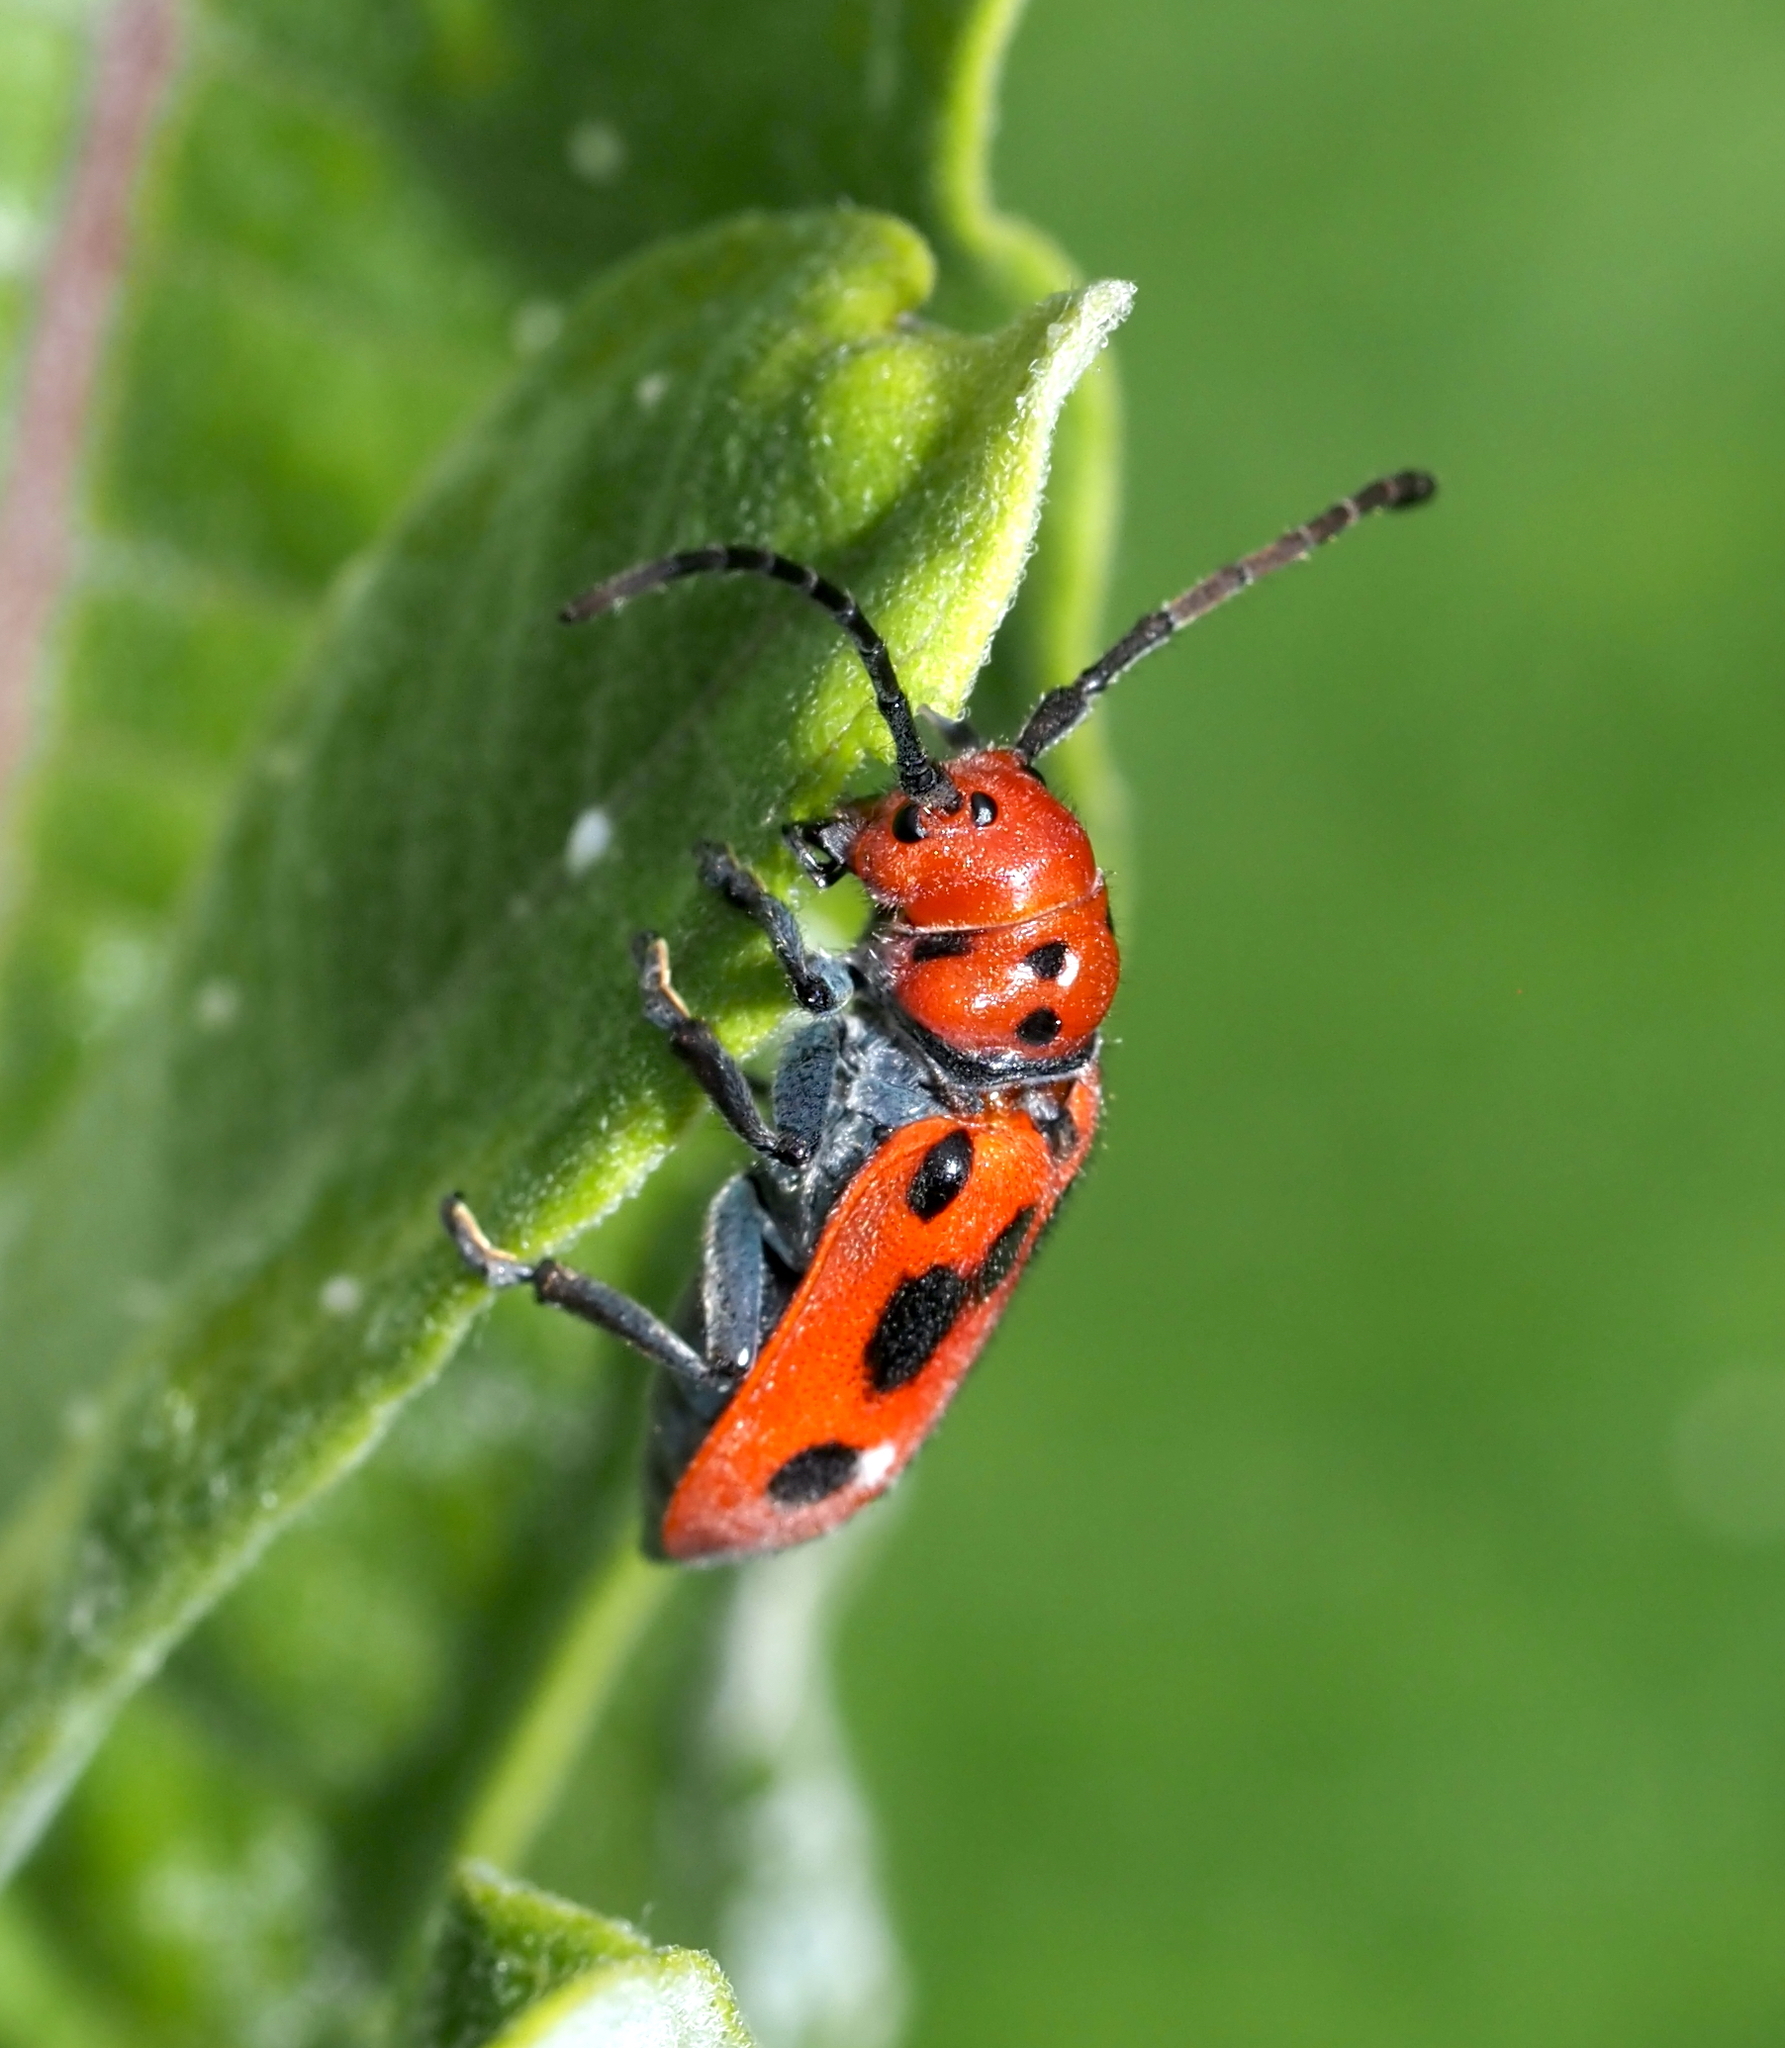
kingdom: Animalia
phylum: Arthropoda
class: Insecta
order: Coleoptera
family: Cerambycidae
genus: Tetraopes
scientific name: Tetraopes tetrophthalmus
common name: Red milkweed beetle
